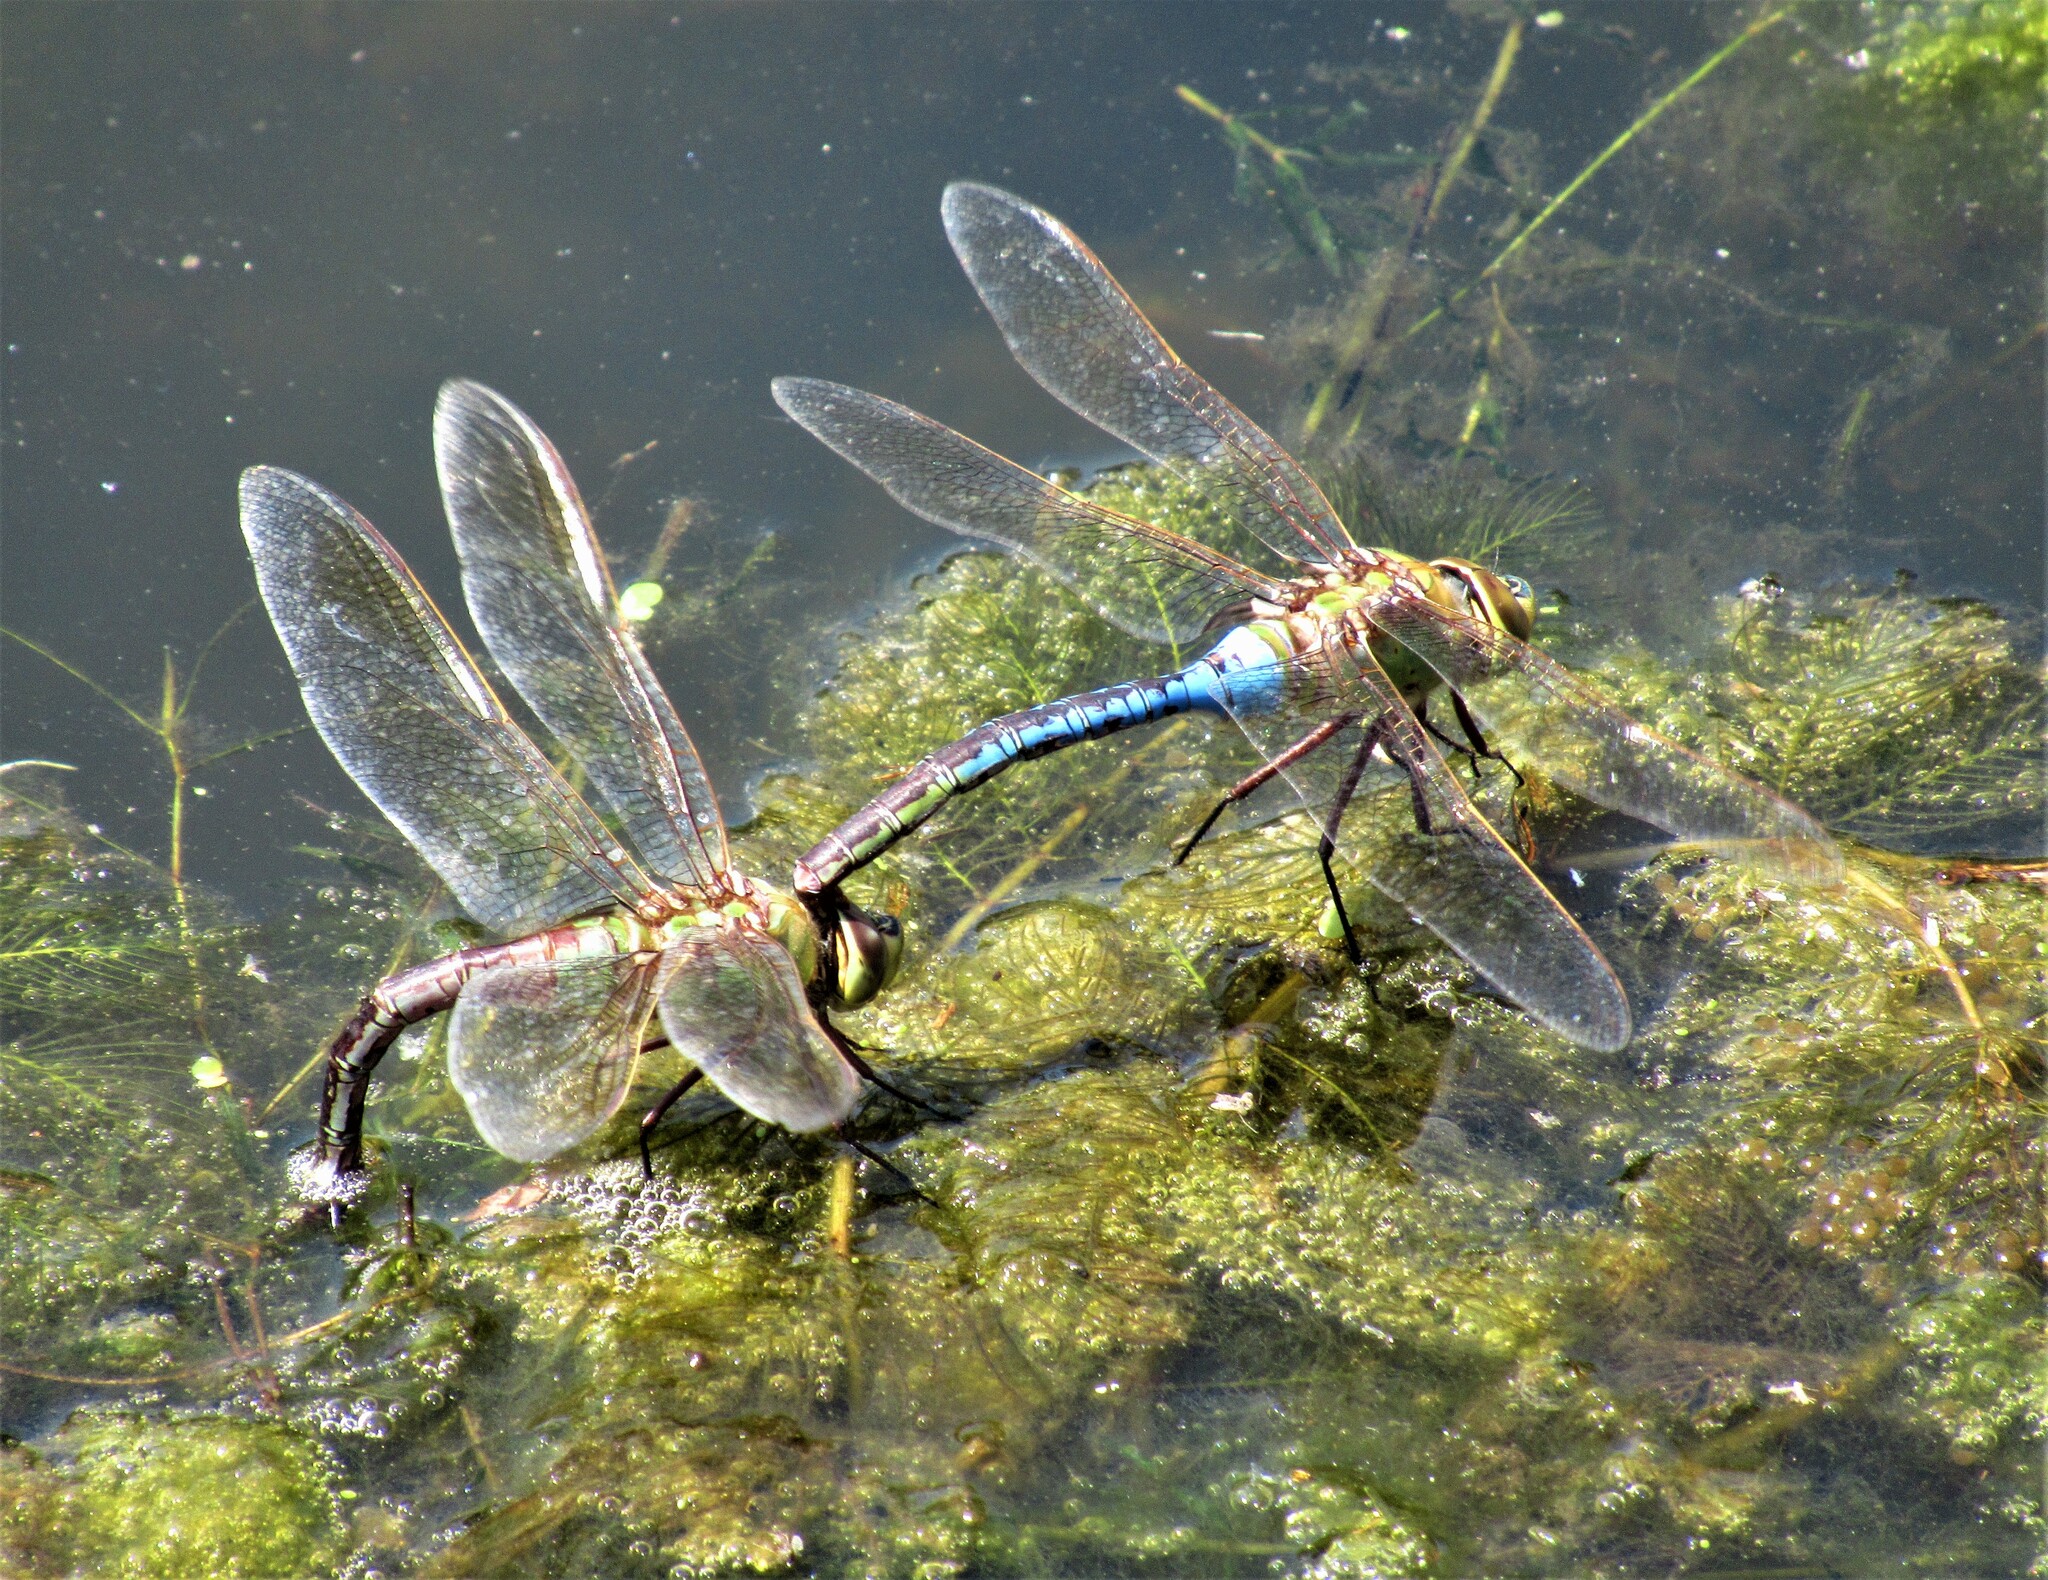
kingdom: Animalia
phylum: Arthropoda
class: Insecta
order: Odonata
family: Aeshnidae
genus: Anax
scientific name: Anax junius
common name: Common green darner
